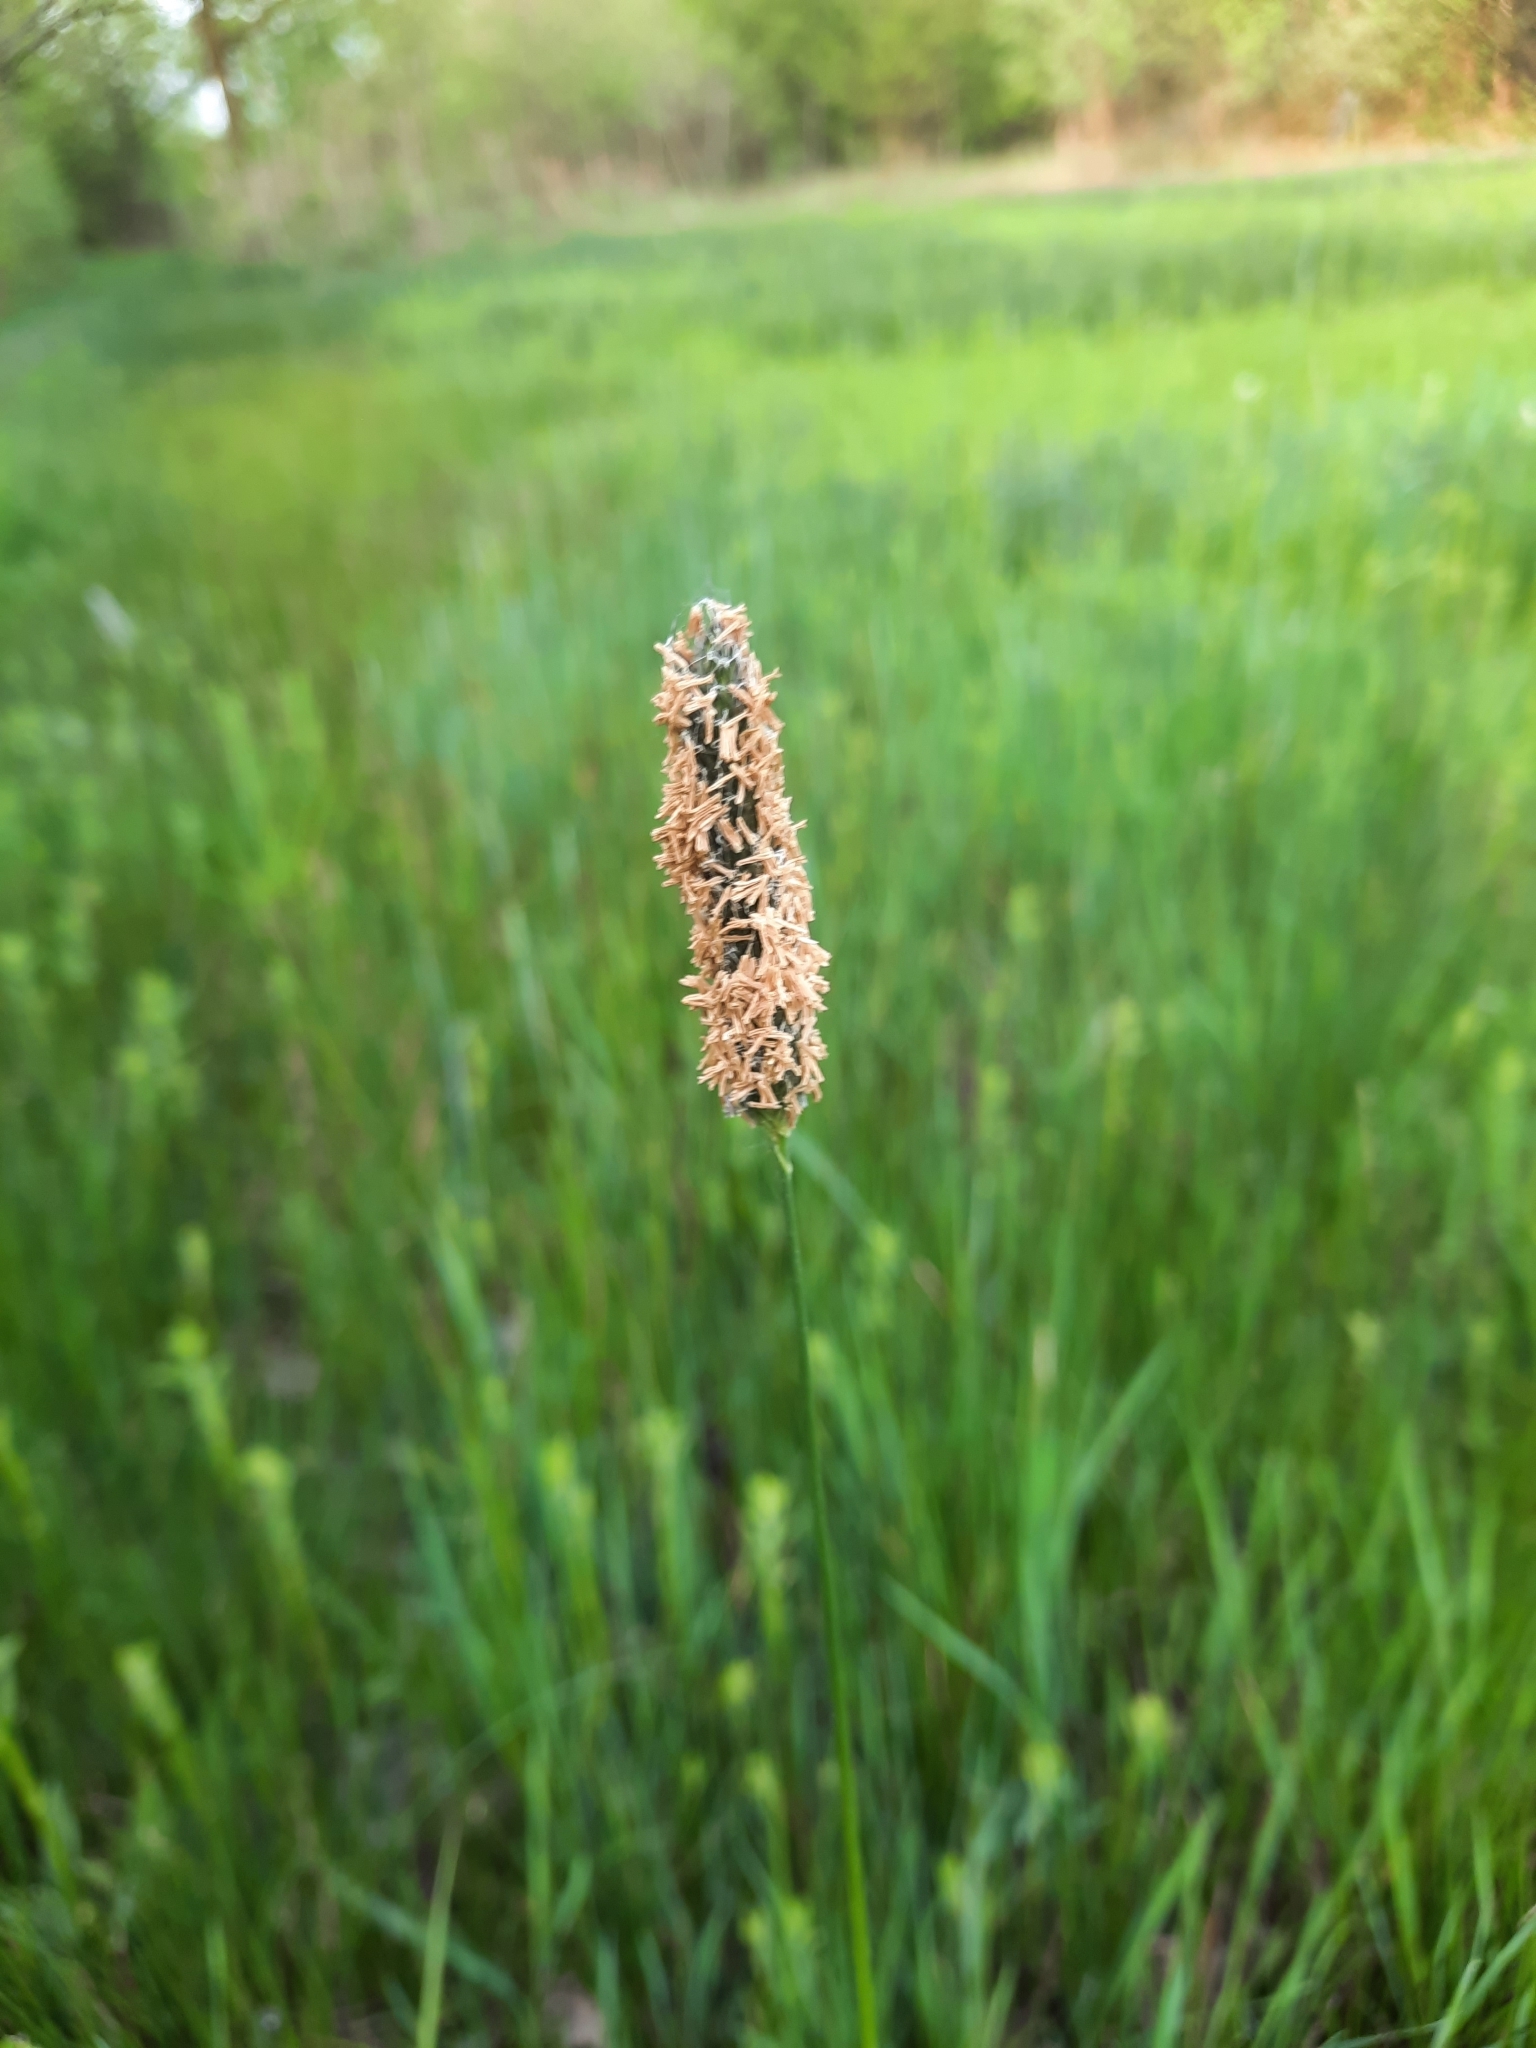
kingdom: Plantae
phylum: Tracheophyta
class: Liliopsida
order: Poales
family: Poaceae
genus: Alopecurus
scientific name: Alopecurus pratensis
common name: Meadow foxtail
